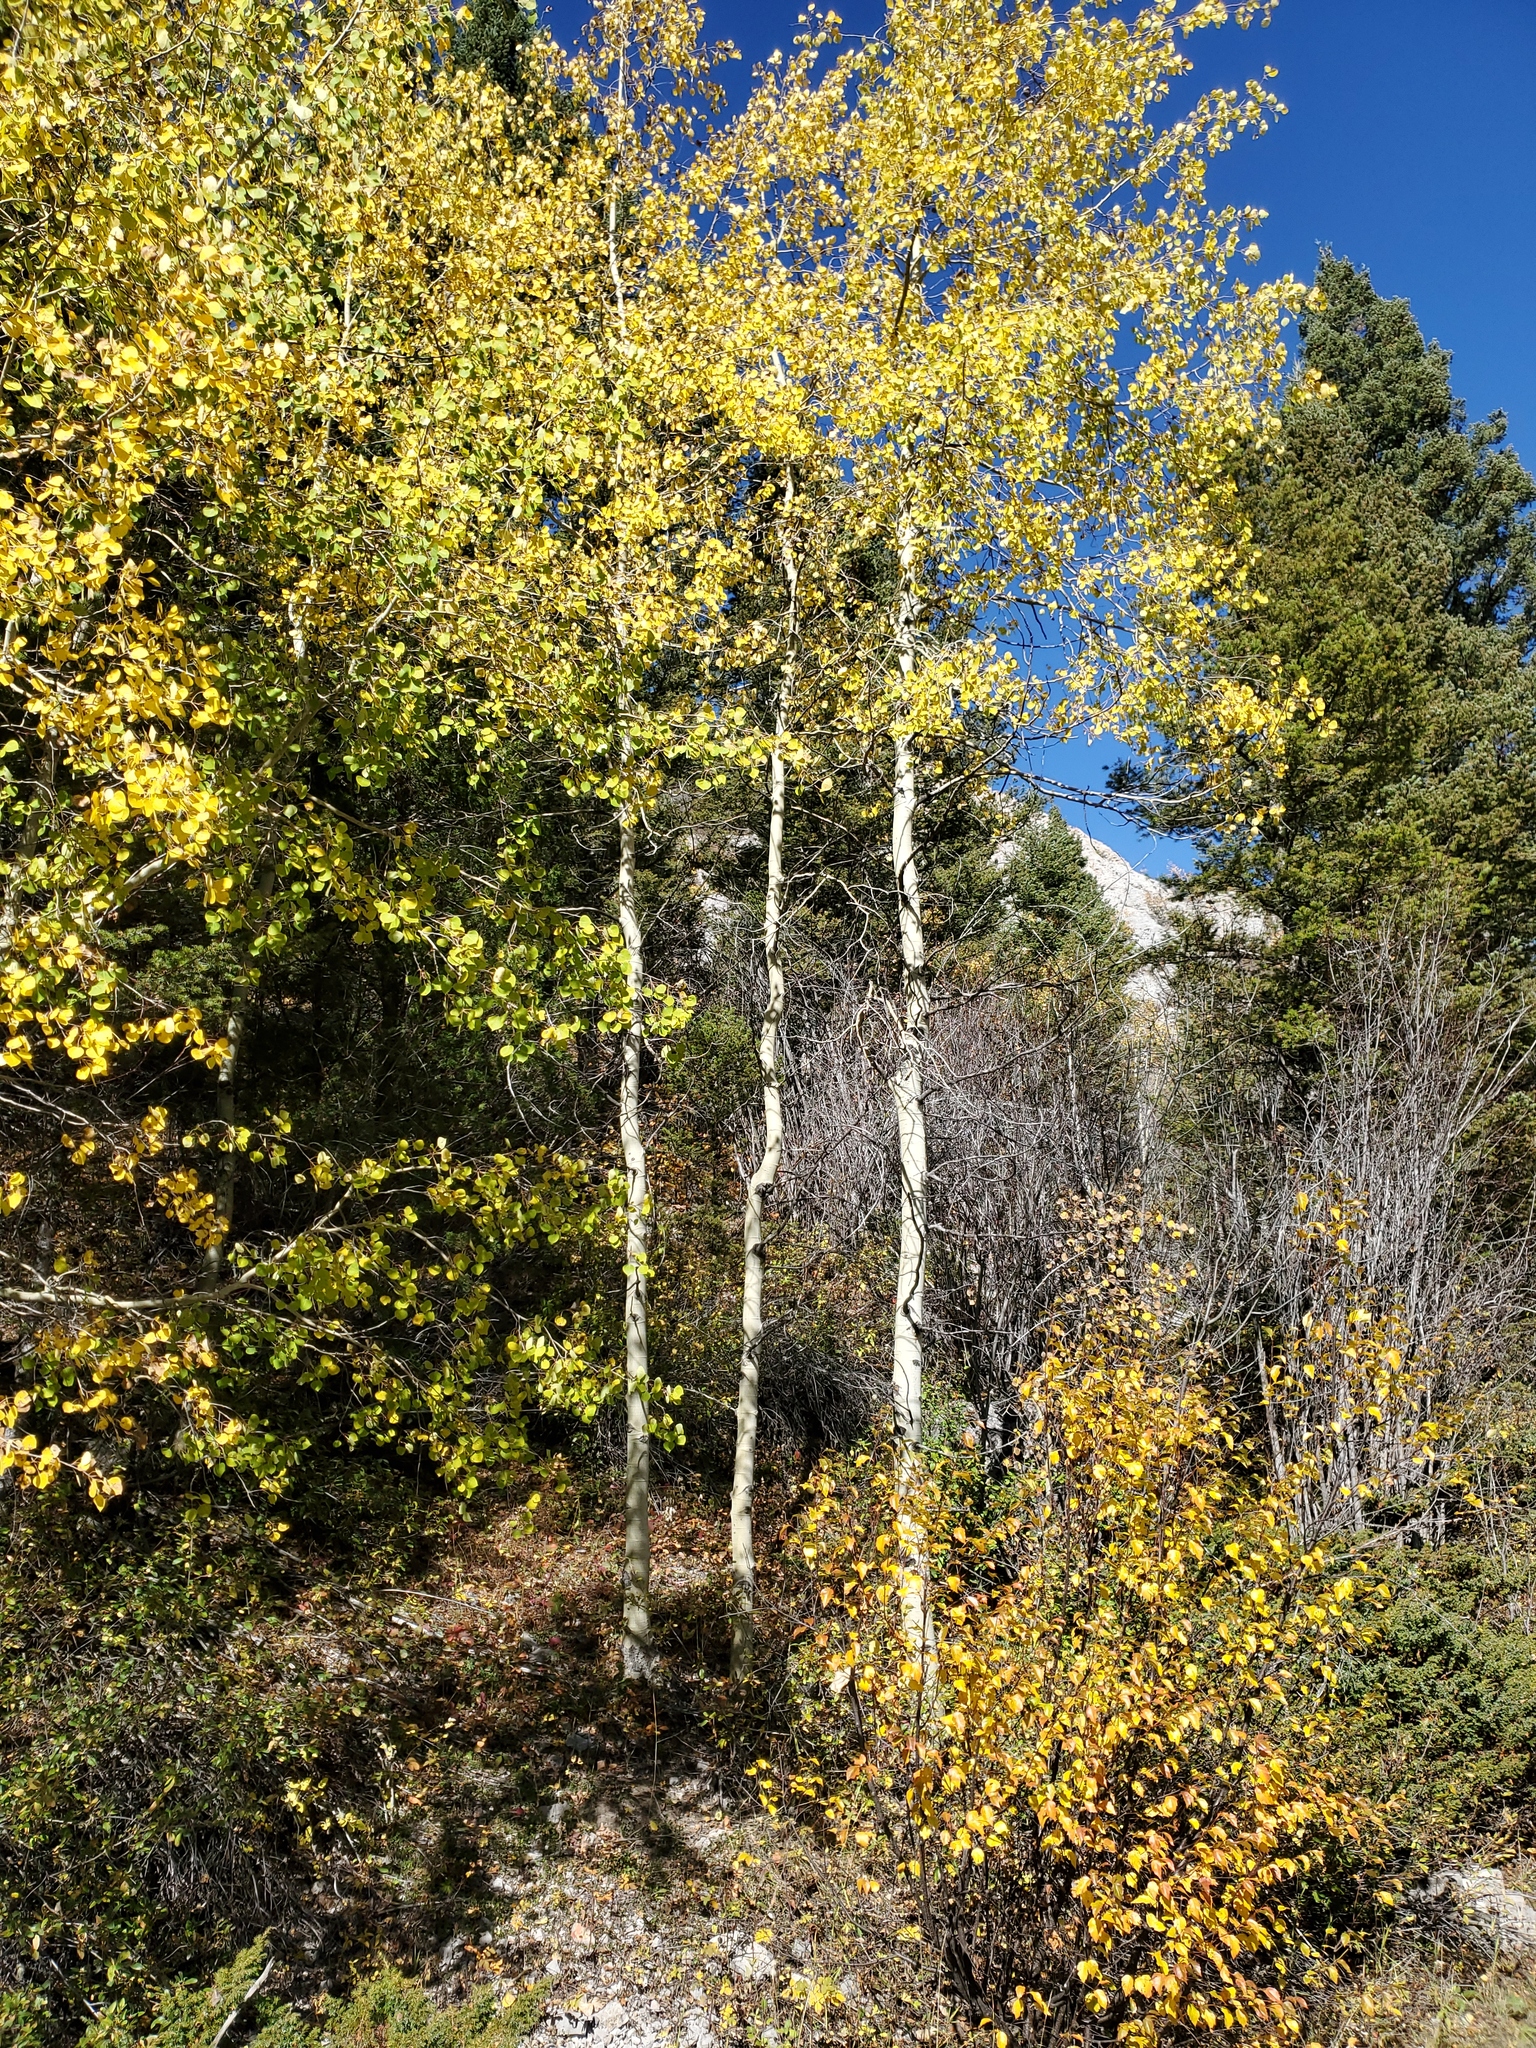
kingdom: Plantae
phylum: Tracheophyta
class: Magnoliopsida
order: Malpighiales
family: Salicaceae
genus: Populus
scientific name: Populus tremuloides
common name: Quaking aspen
